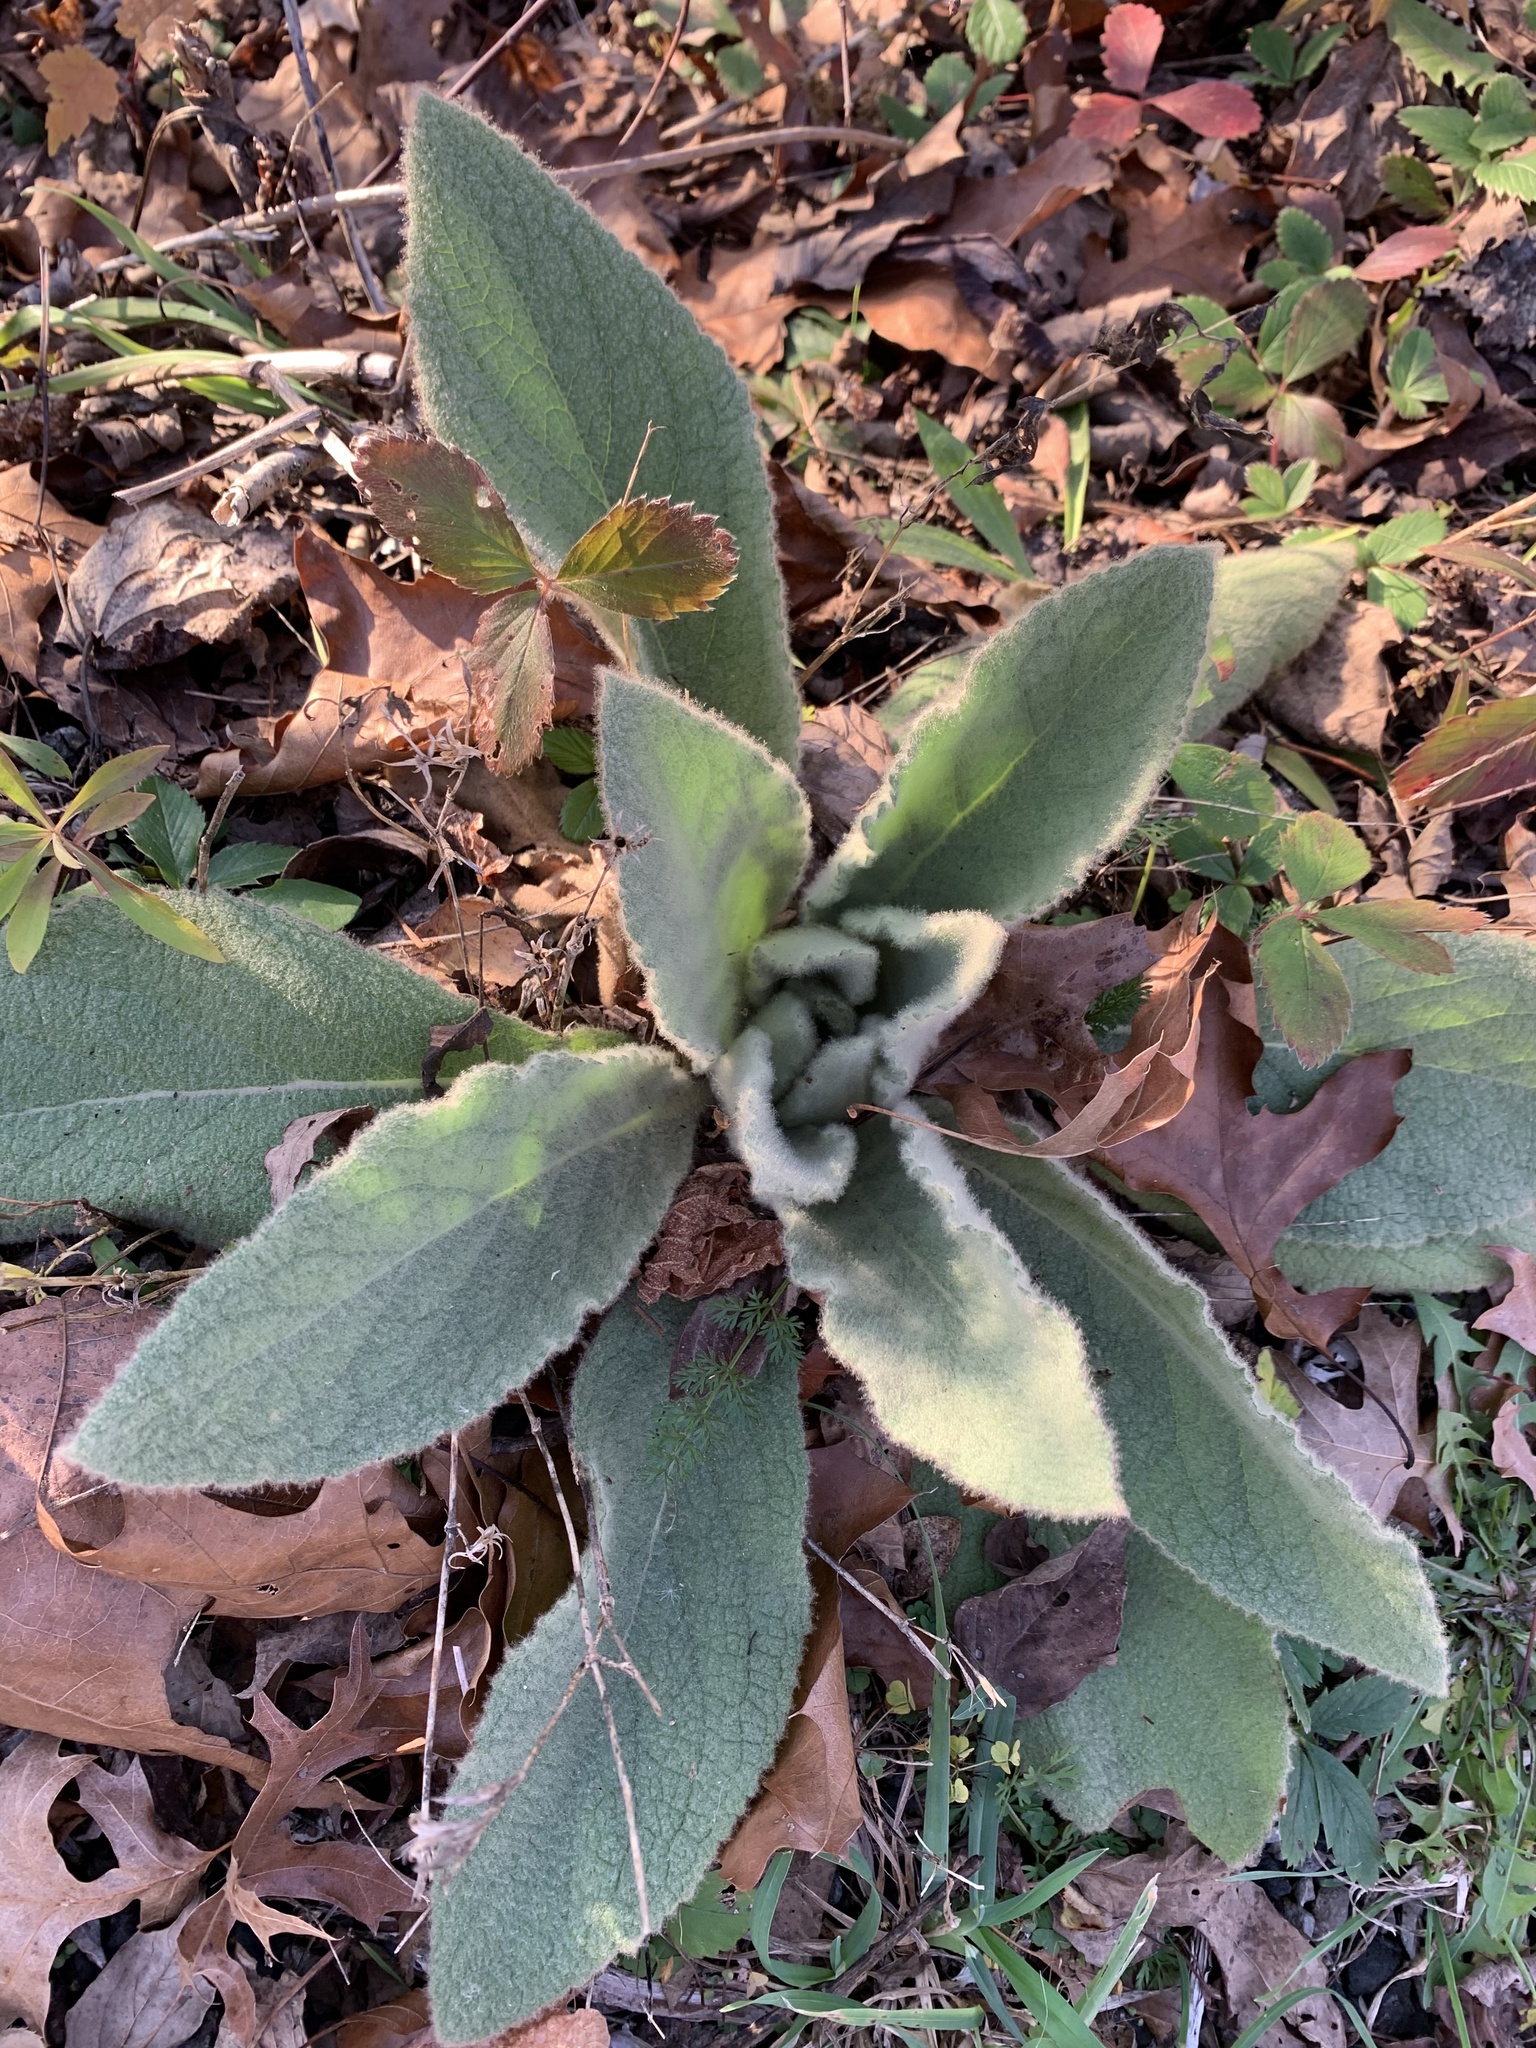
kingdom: Plantae
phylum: Tracheophyta
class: Magnoliopsida
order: Lamiales
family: Scrophulariaceae
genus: Verbascum
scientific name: Verbascum thapsus
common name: Common mullein
